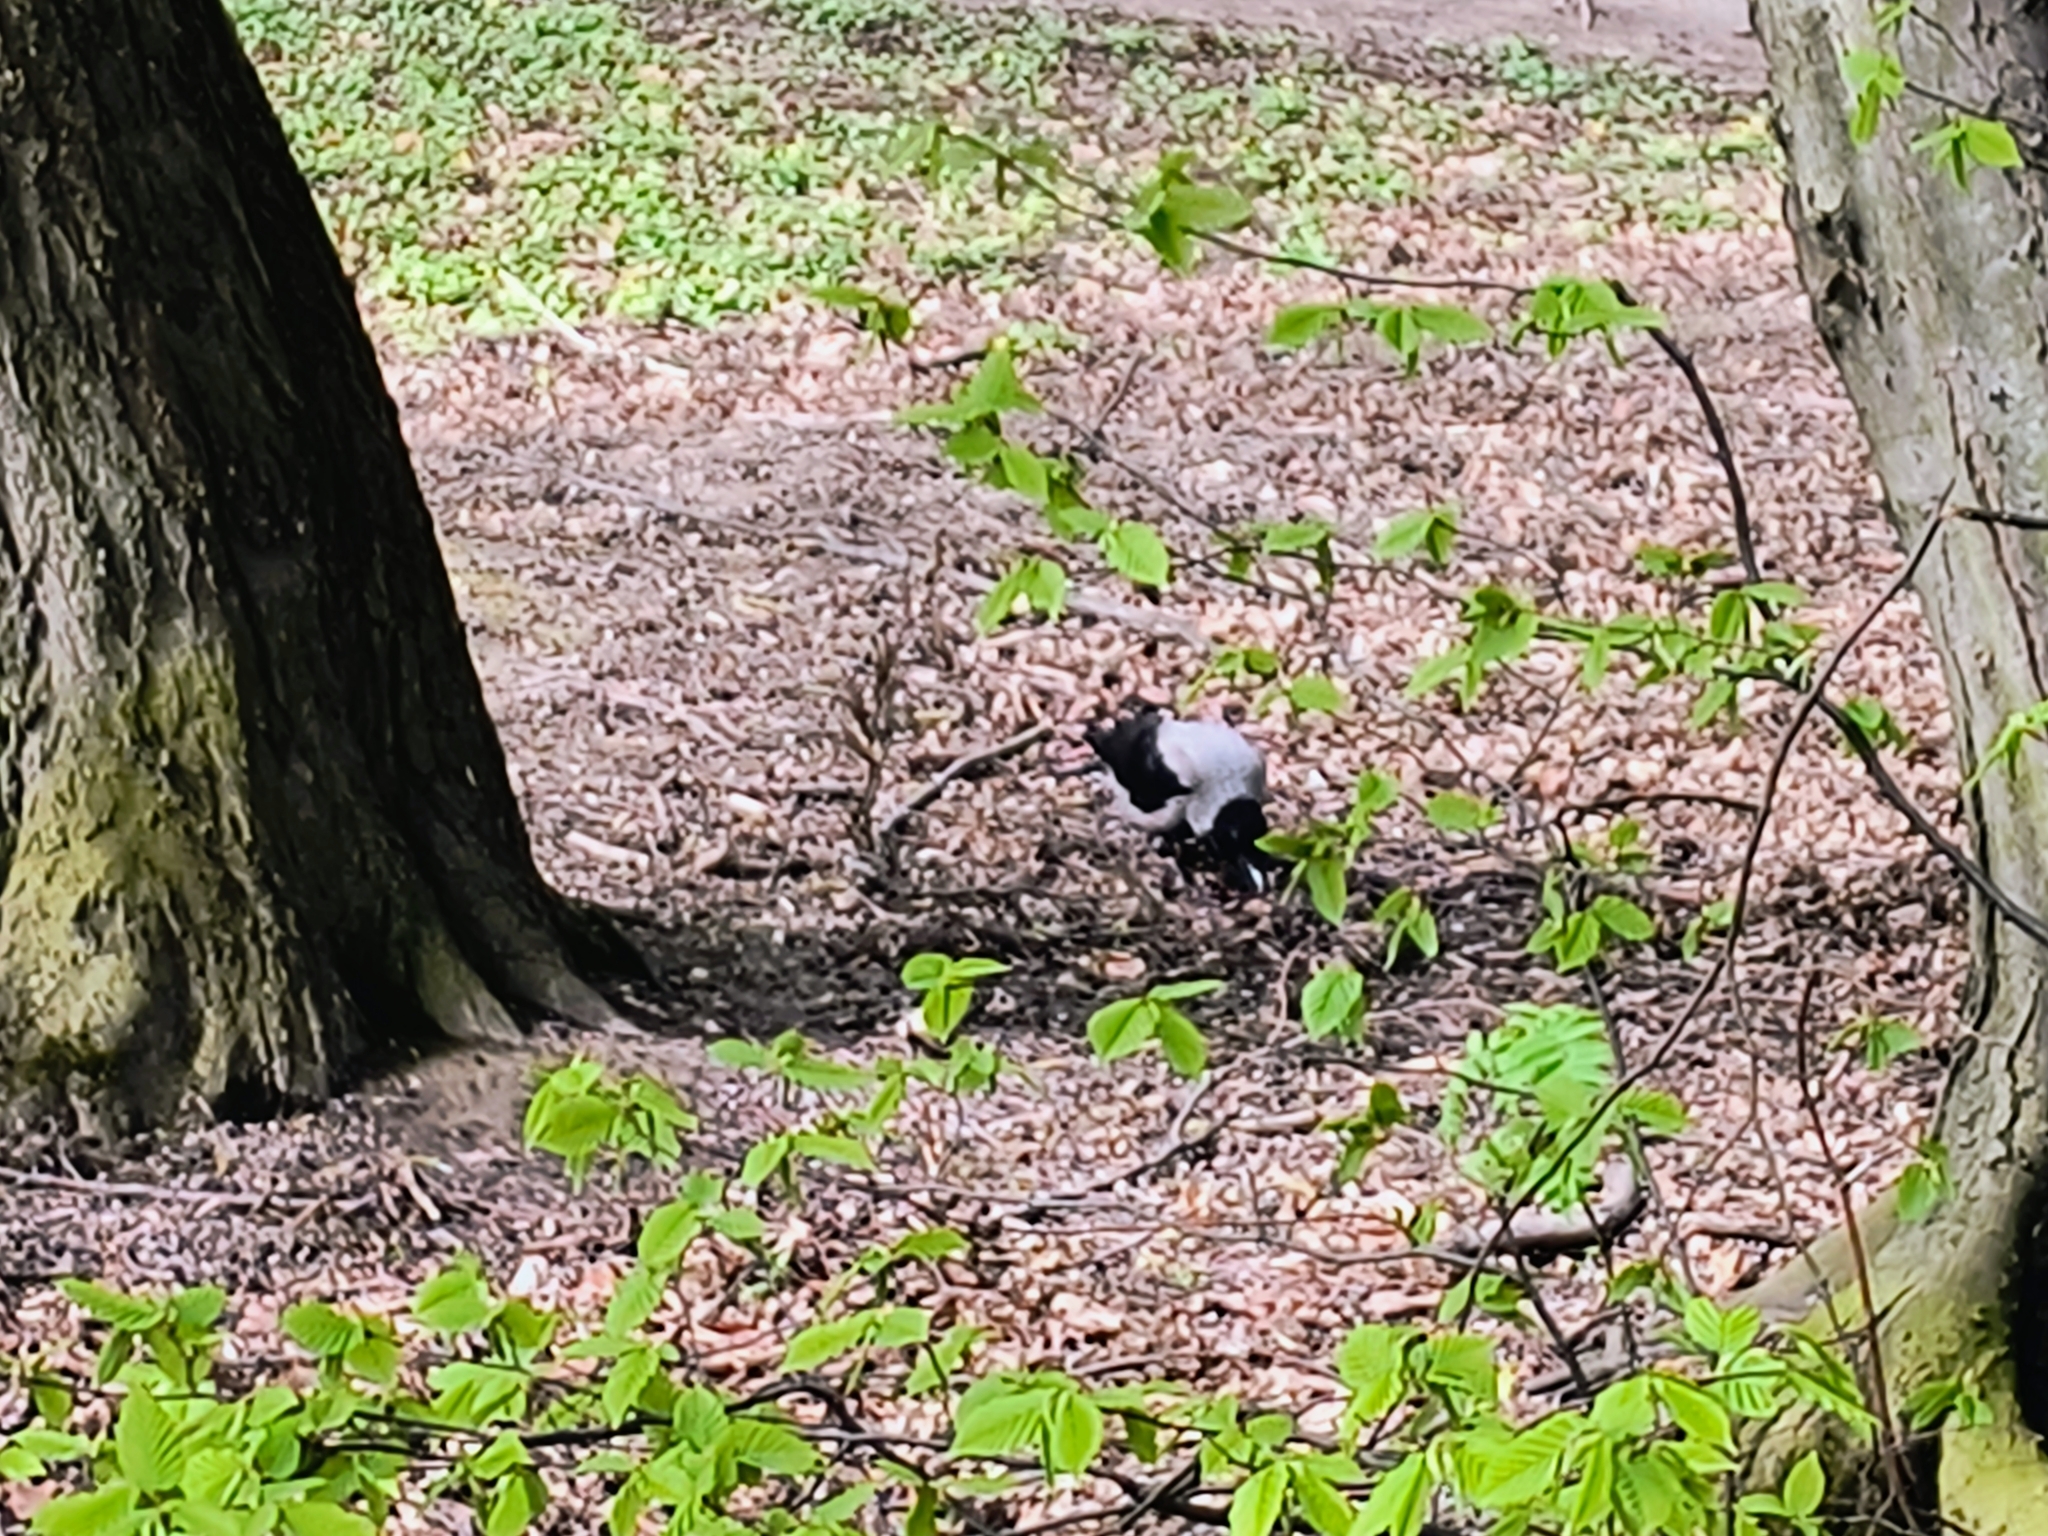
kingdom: Animalia
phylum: Chordata
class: Aves
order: Passeriformes
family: Corvidae
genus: Corvus
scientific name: Corvus cornix
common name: Hooded crow
